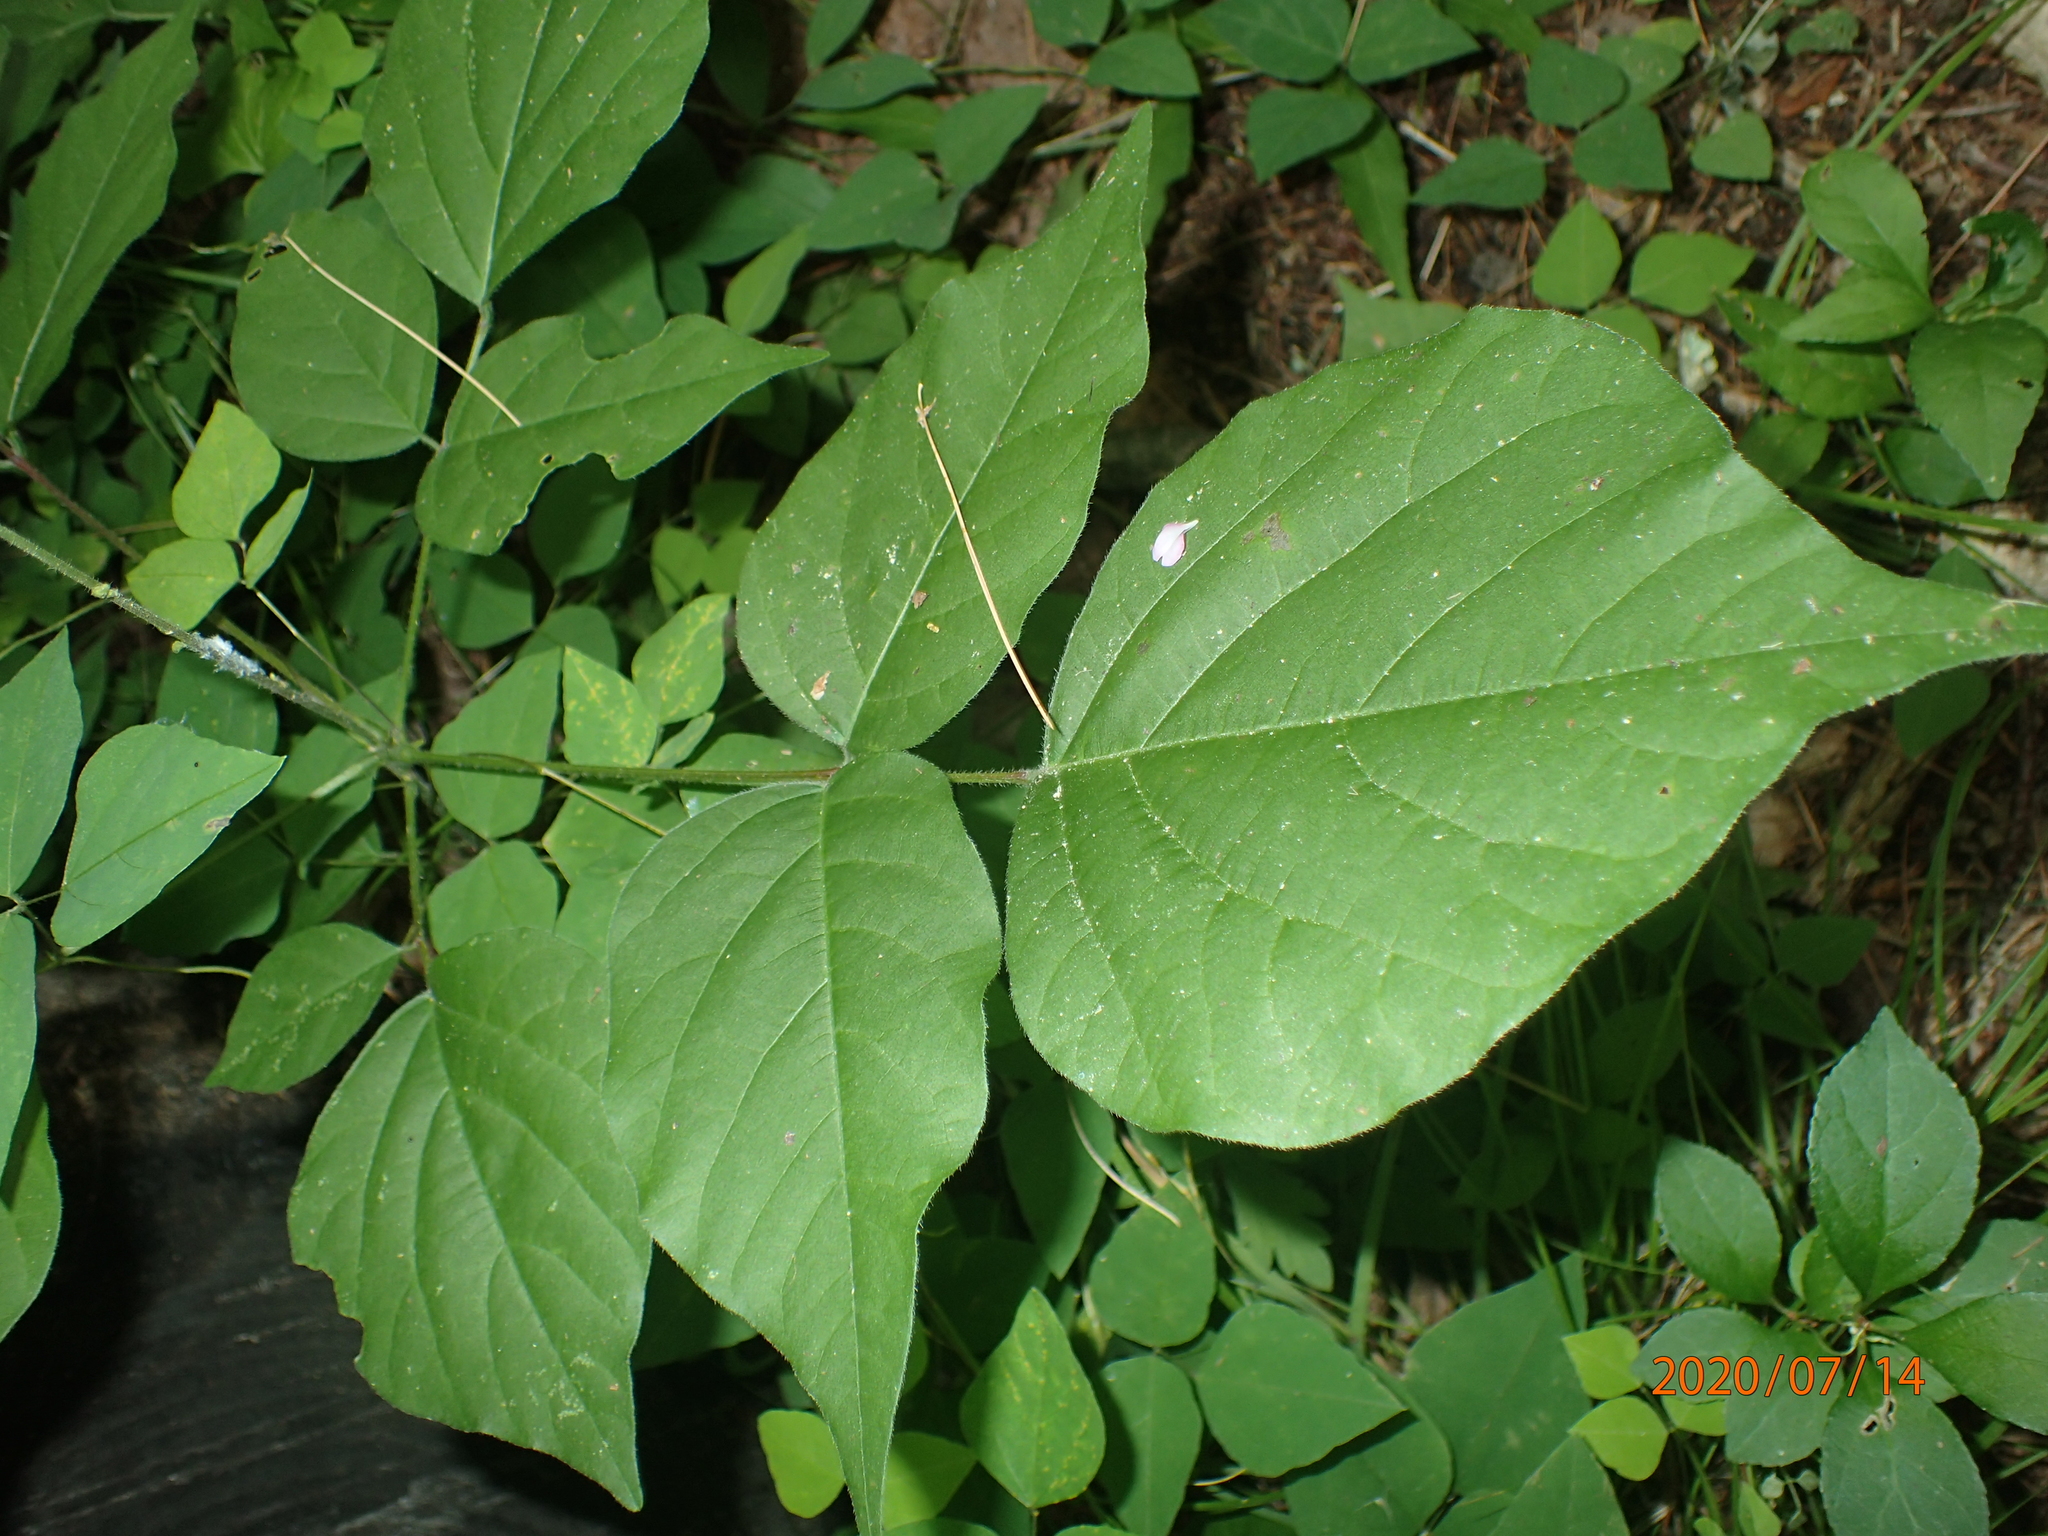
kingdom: Plantae
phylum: Tracheophyta
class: Magnoliopsida
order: Fabales
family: Fabaceae
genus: Hylodesmum
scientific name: Hylodesmum glutinosum
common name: Clustered-leaved tick-trefoil
